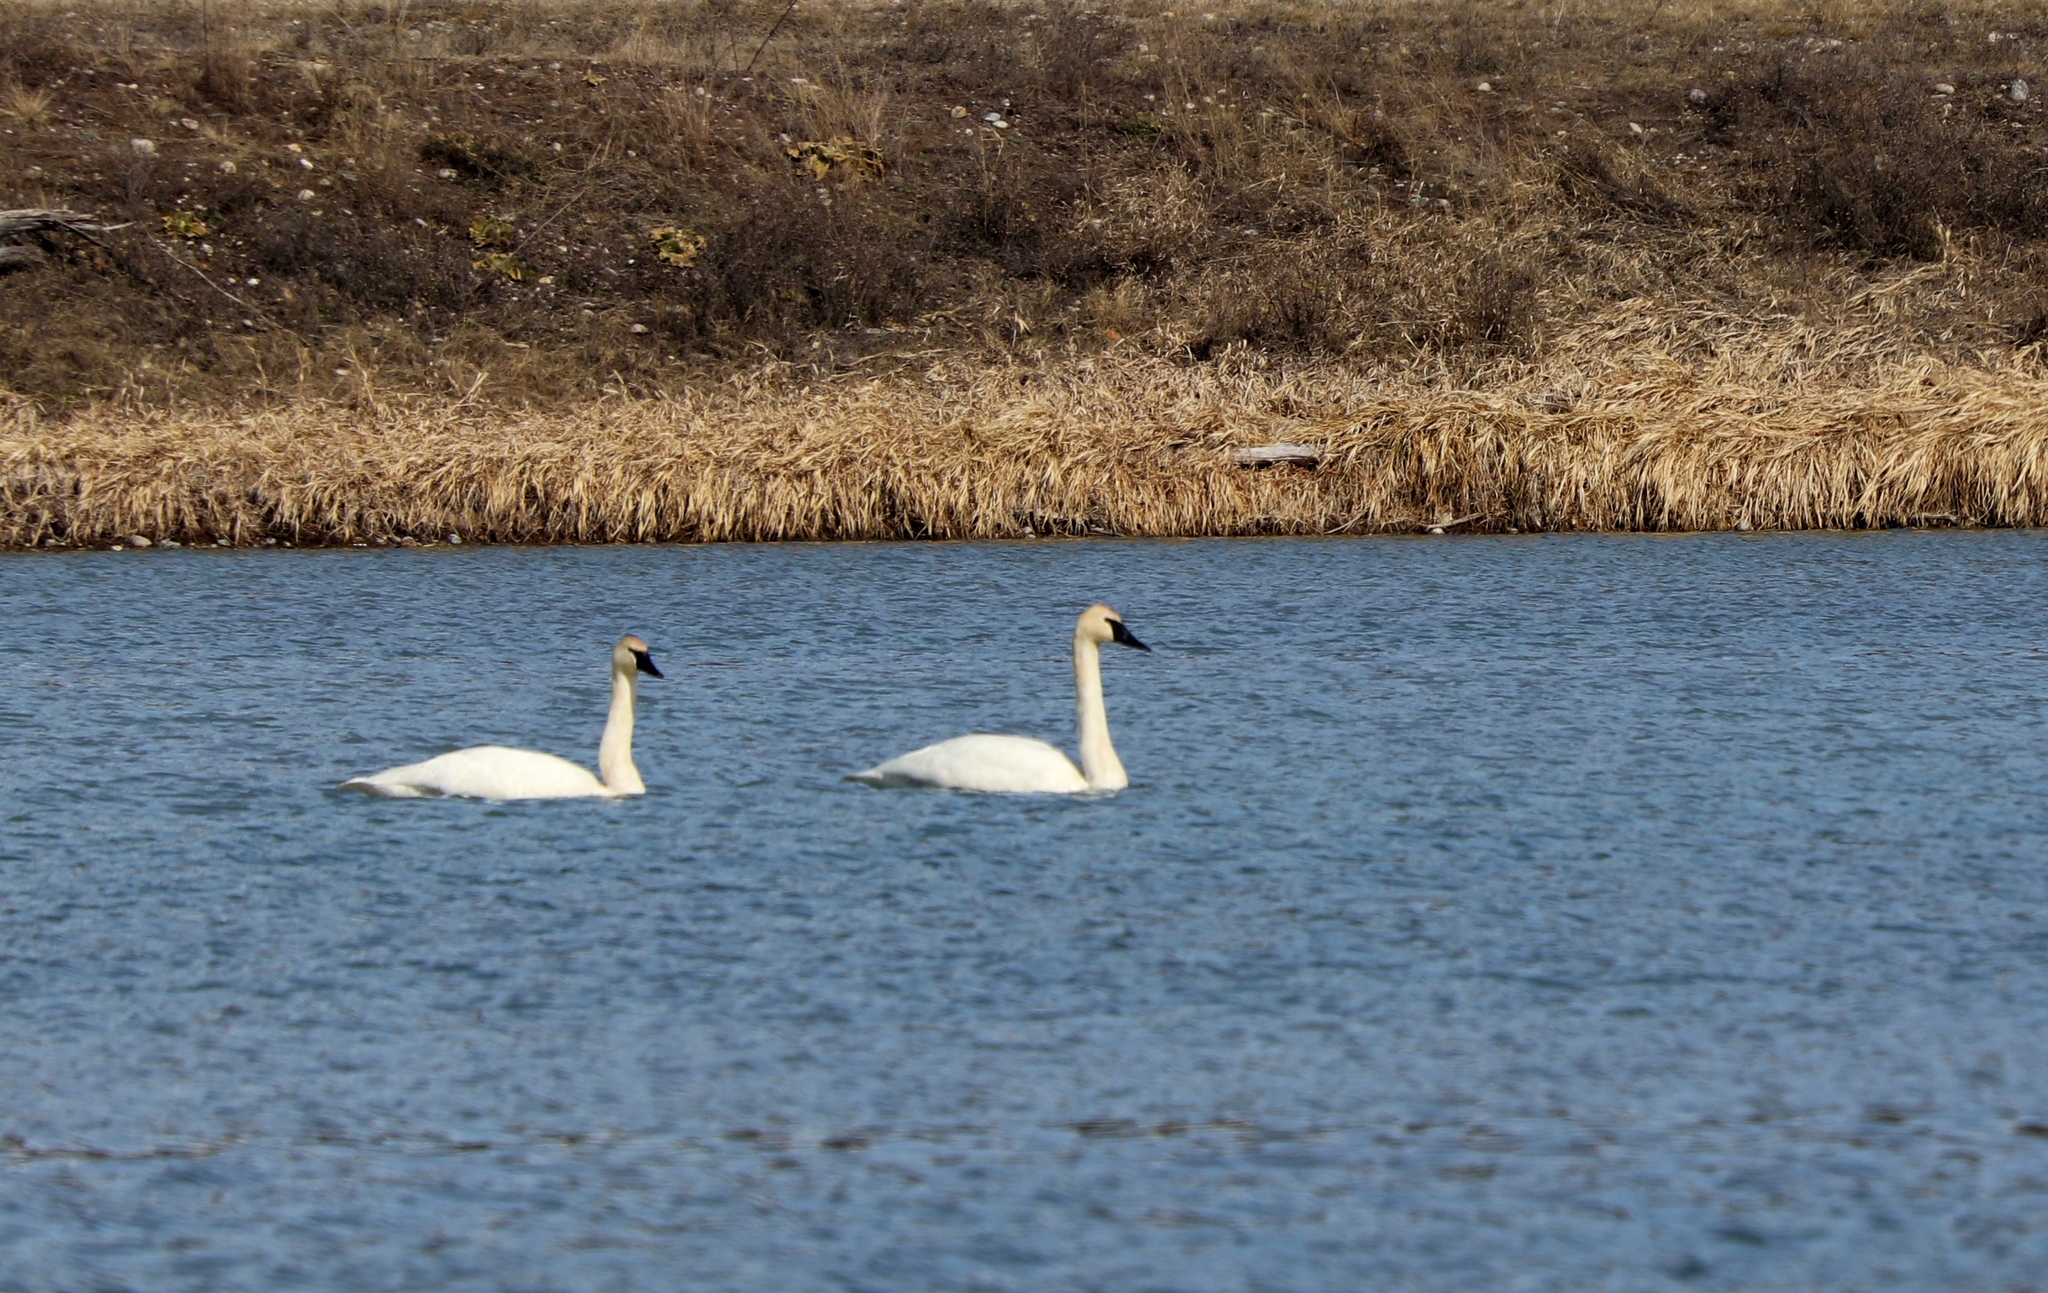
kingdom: Animalia
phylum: Chordata
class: Aves
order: Anseriformes
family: Anatidae
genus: Cygnus
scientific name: Cygnus buccinator
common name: Trumpeter swan
